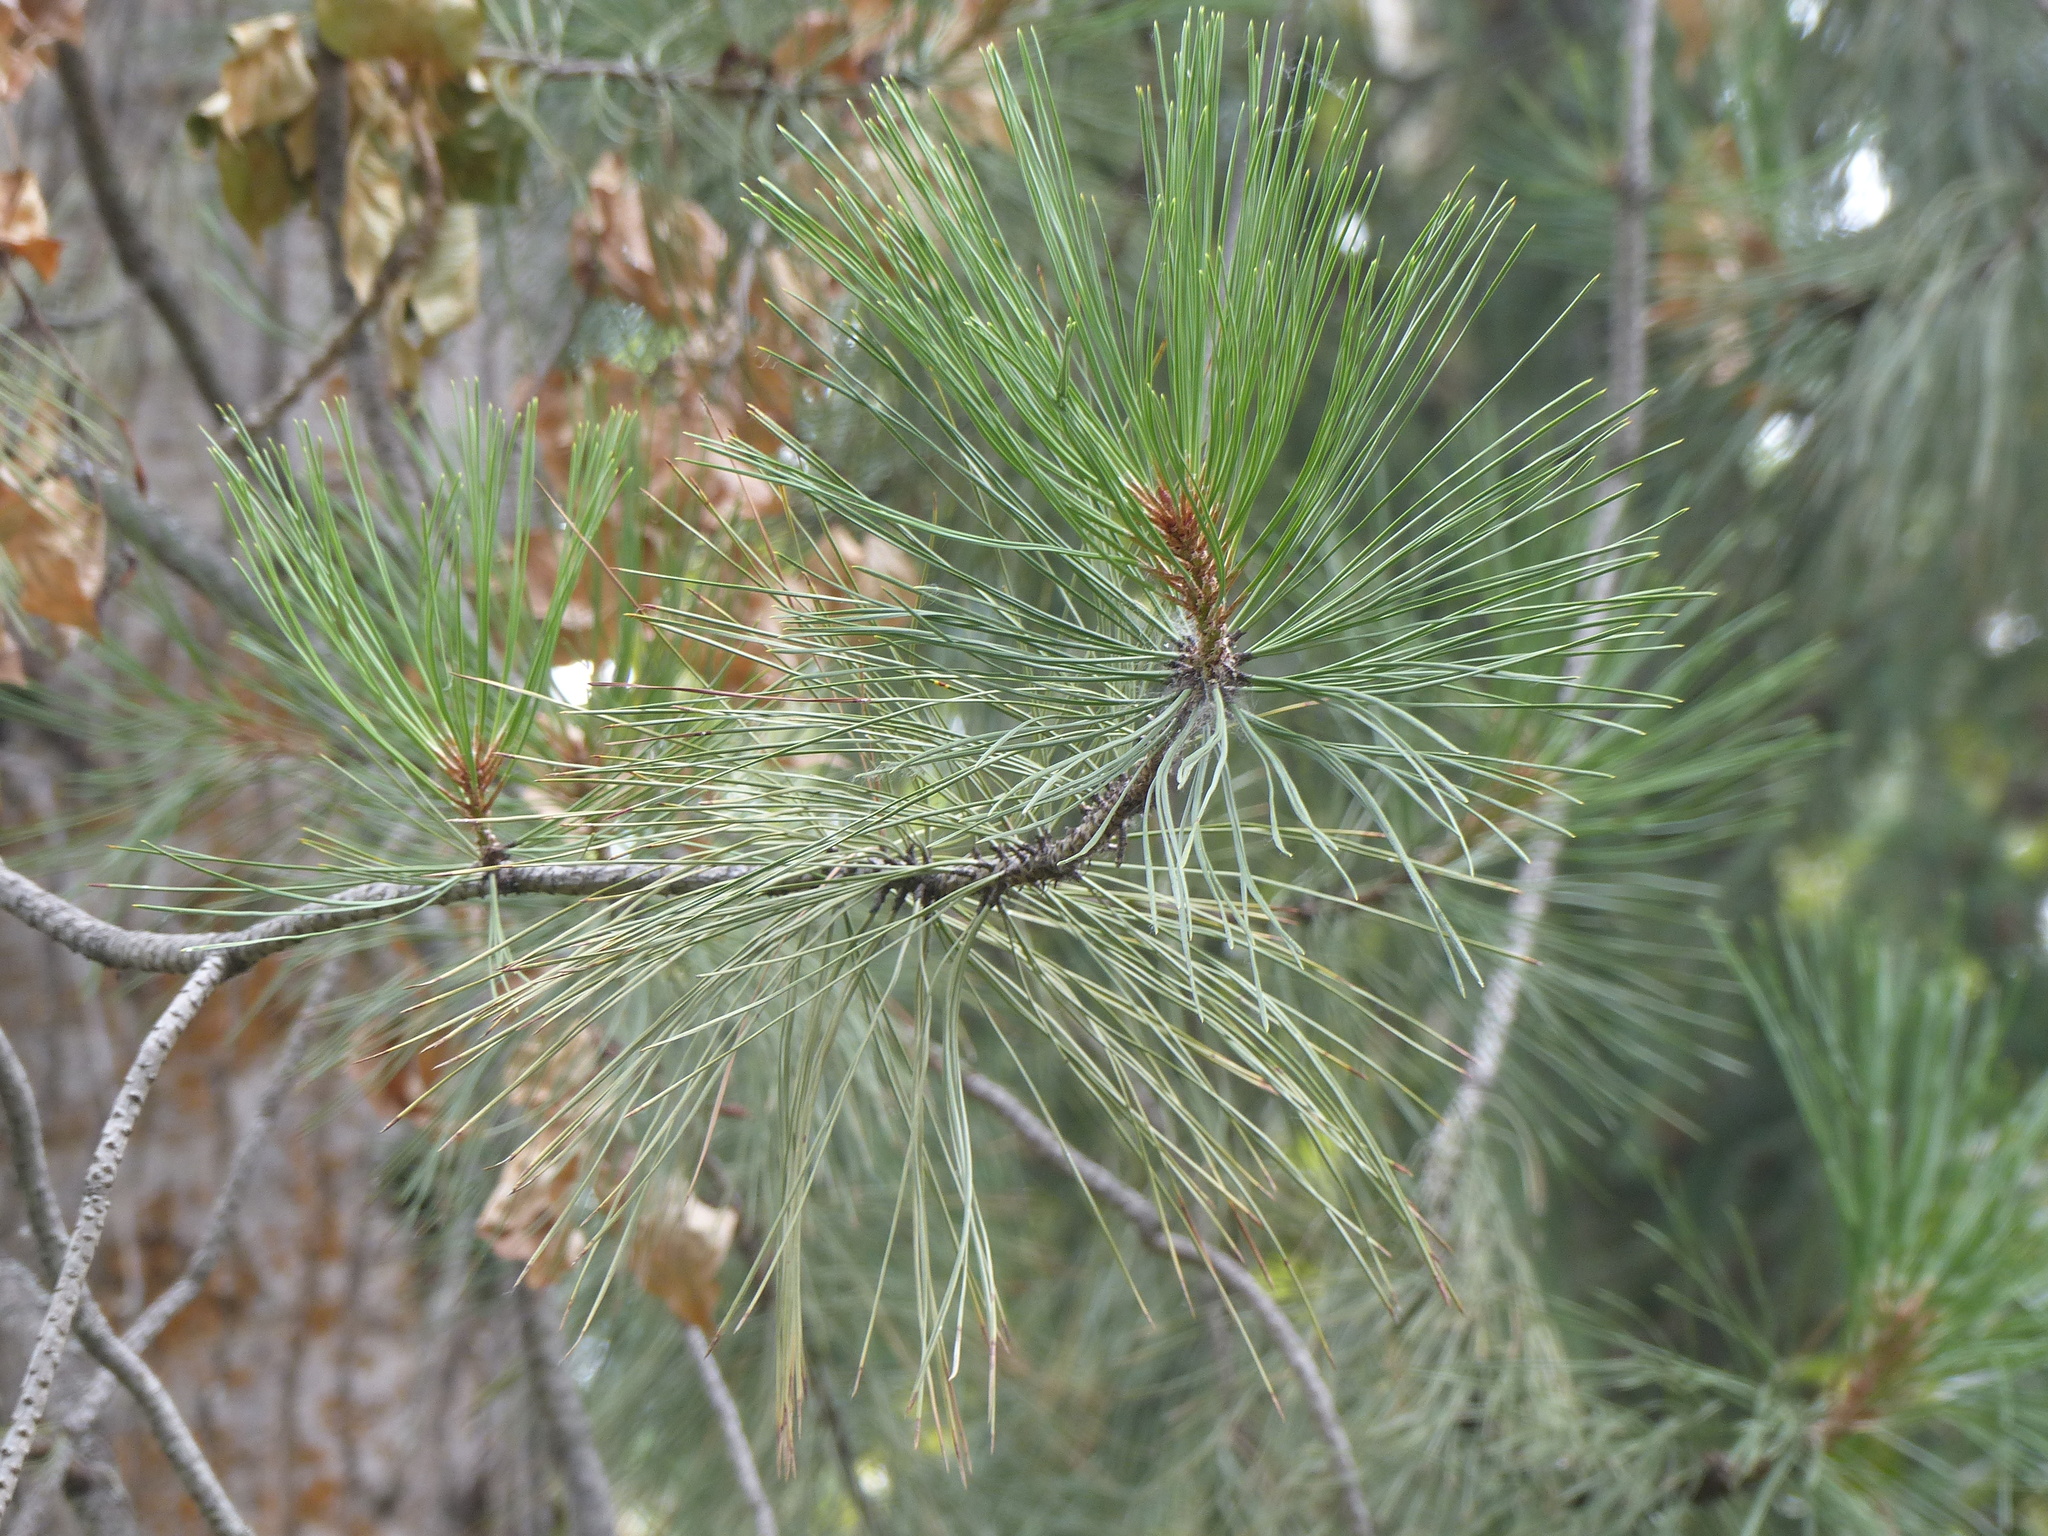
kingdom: Plantae
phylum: Tracheophyta
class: Pinopsida
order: Pinales
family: Pinaceae
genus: Pinus
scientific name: Pinus ponderosa
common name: Western yellow-pine
